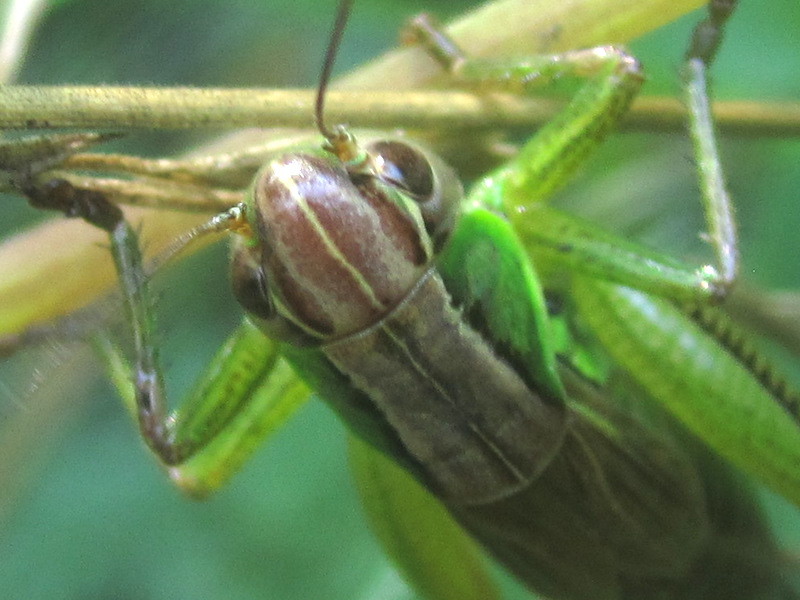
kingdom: Animalia
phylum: Arthropoda
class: Insecta
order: Orthoptera
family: Tettigoniidae
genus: Roeseliana
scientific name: Roeseliana roeselii
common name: Roesel's bush cricket
